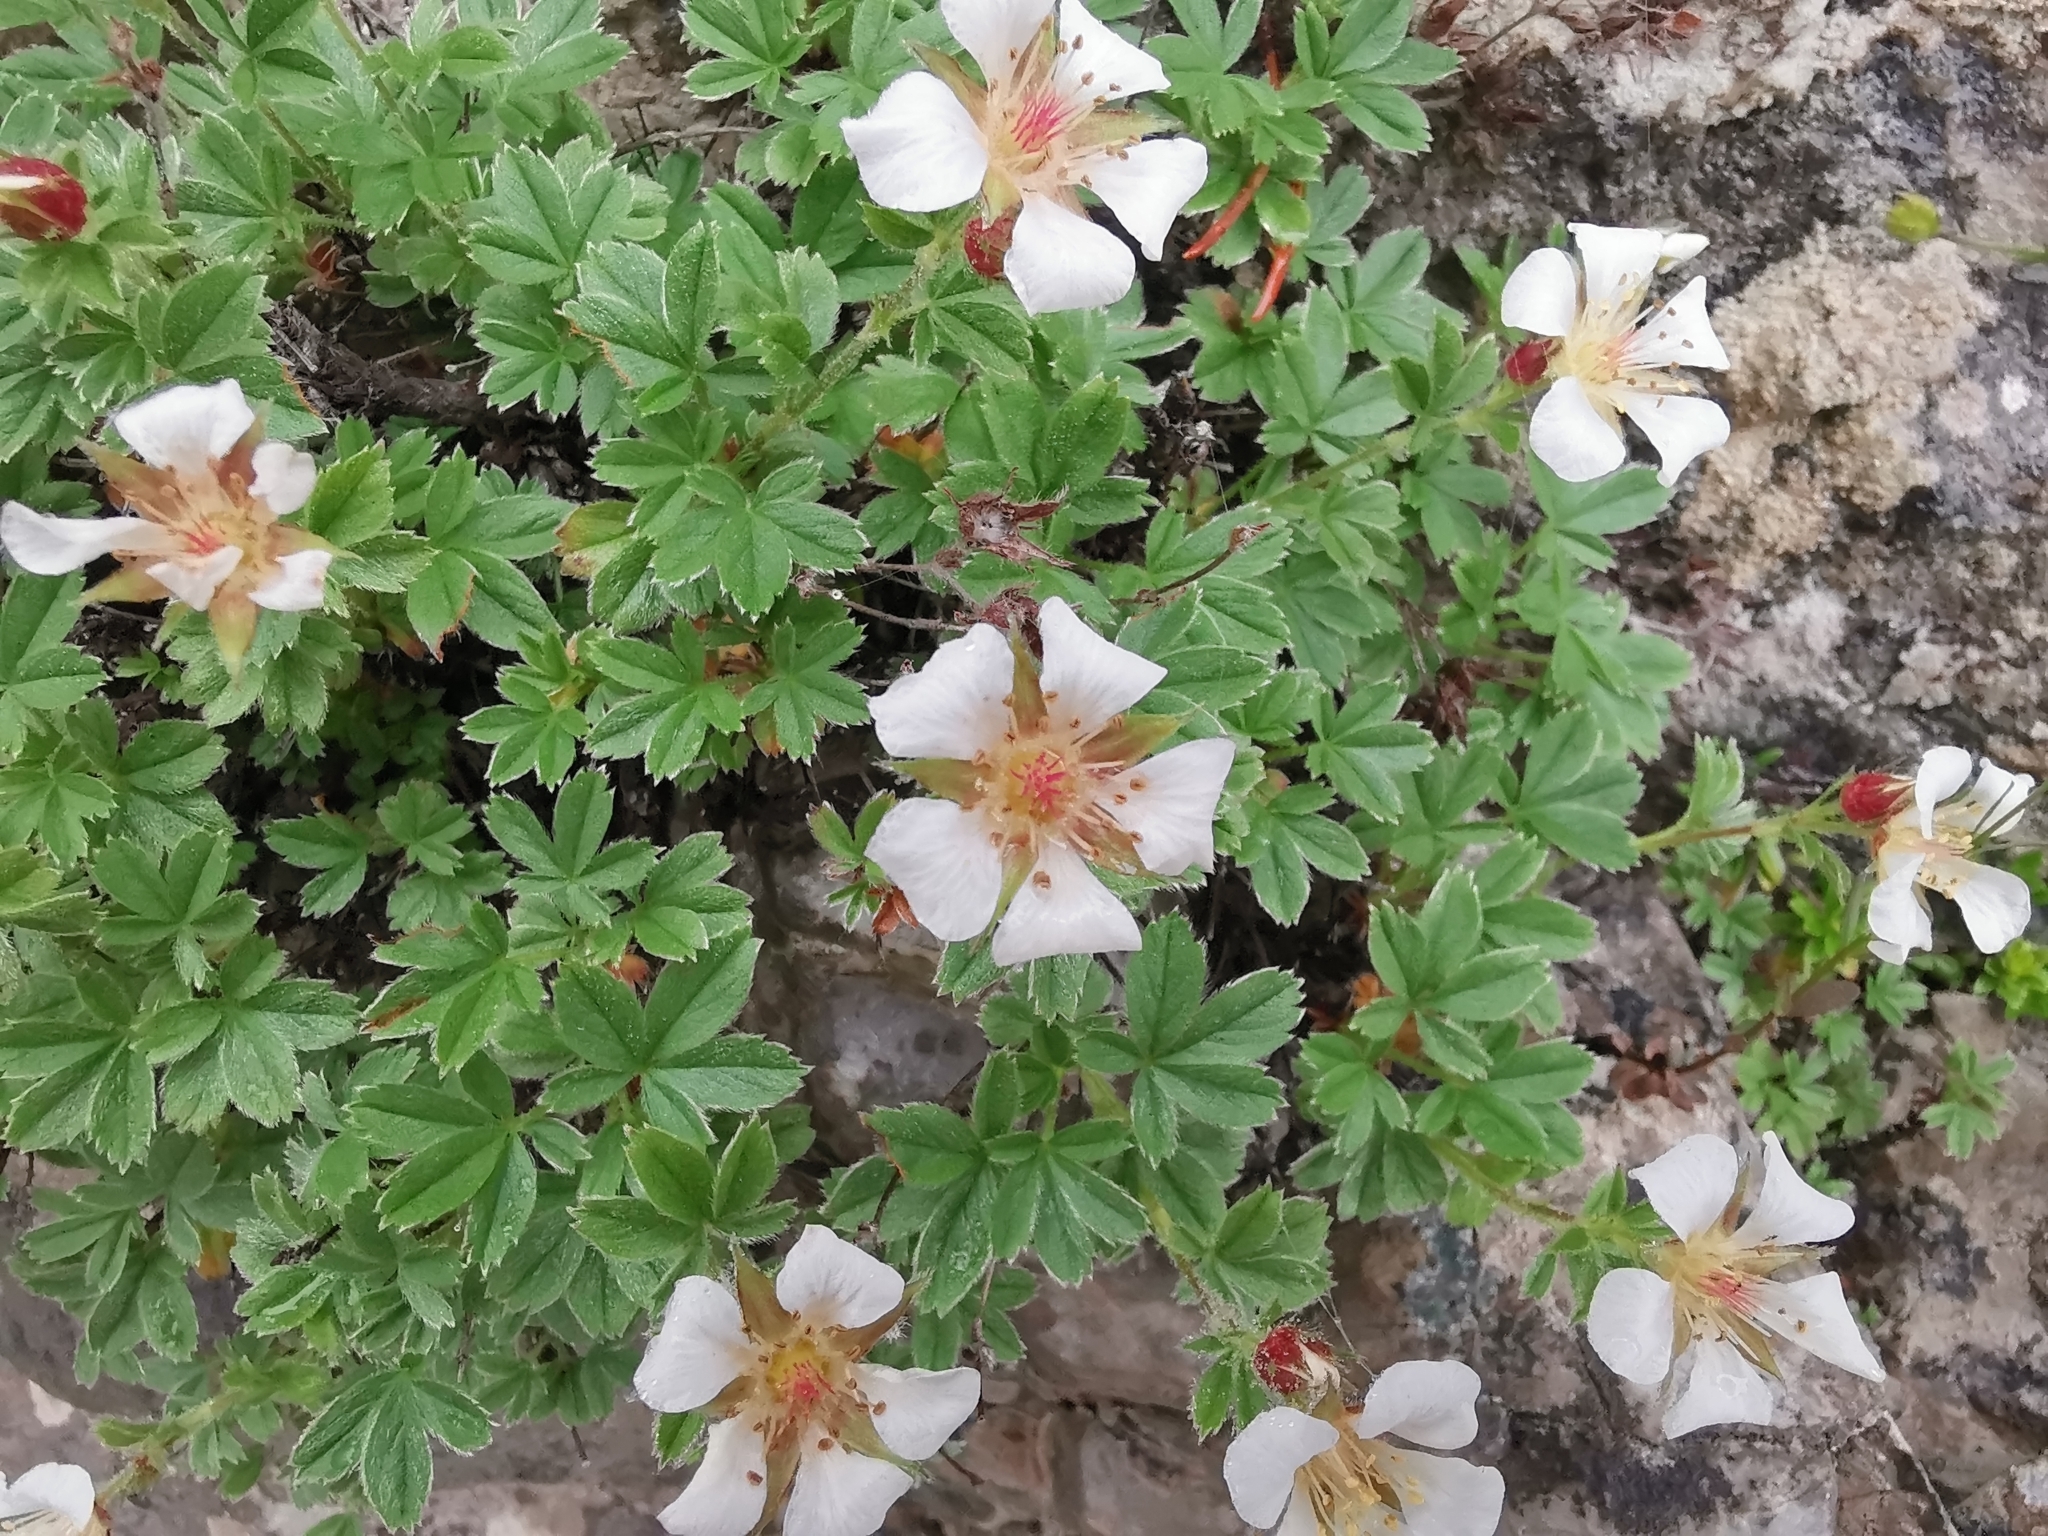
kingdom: Plantae
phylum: Tracheophyta
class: Magnoliopsida
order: Rosales
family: Rosaceae
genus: Potentilla
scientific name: Potentilla clusiana
